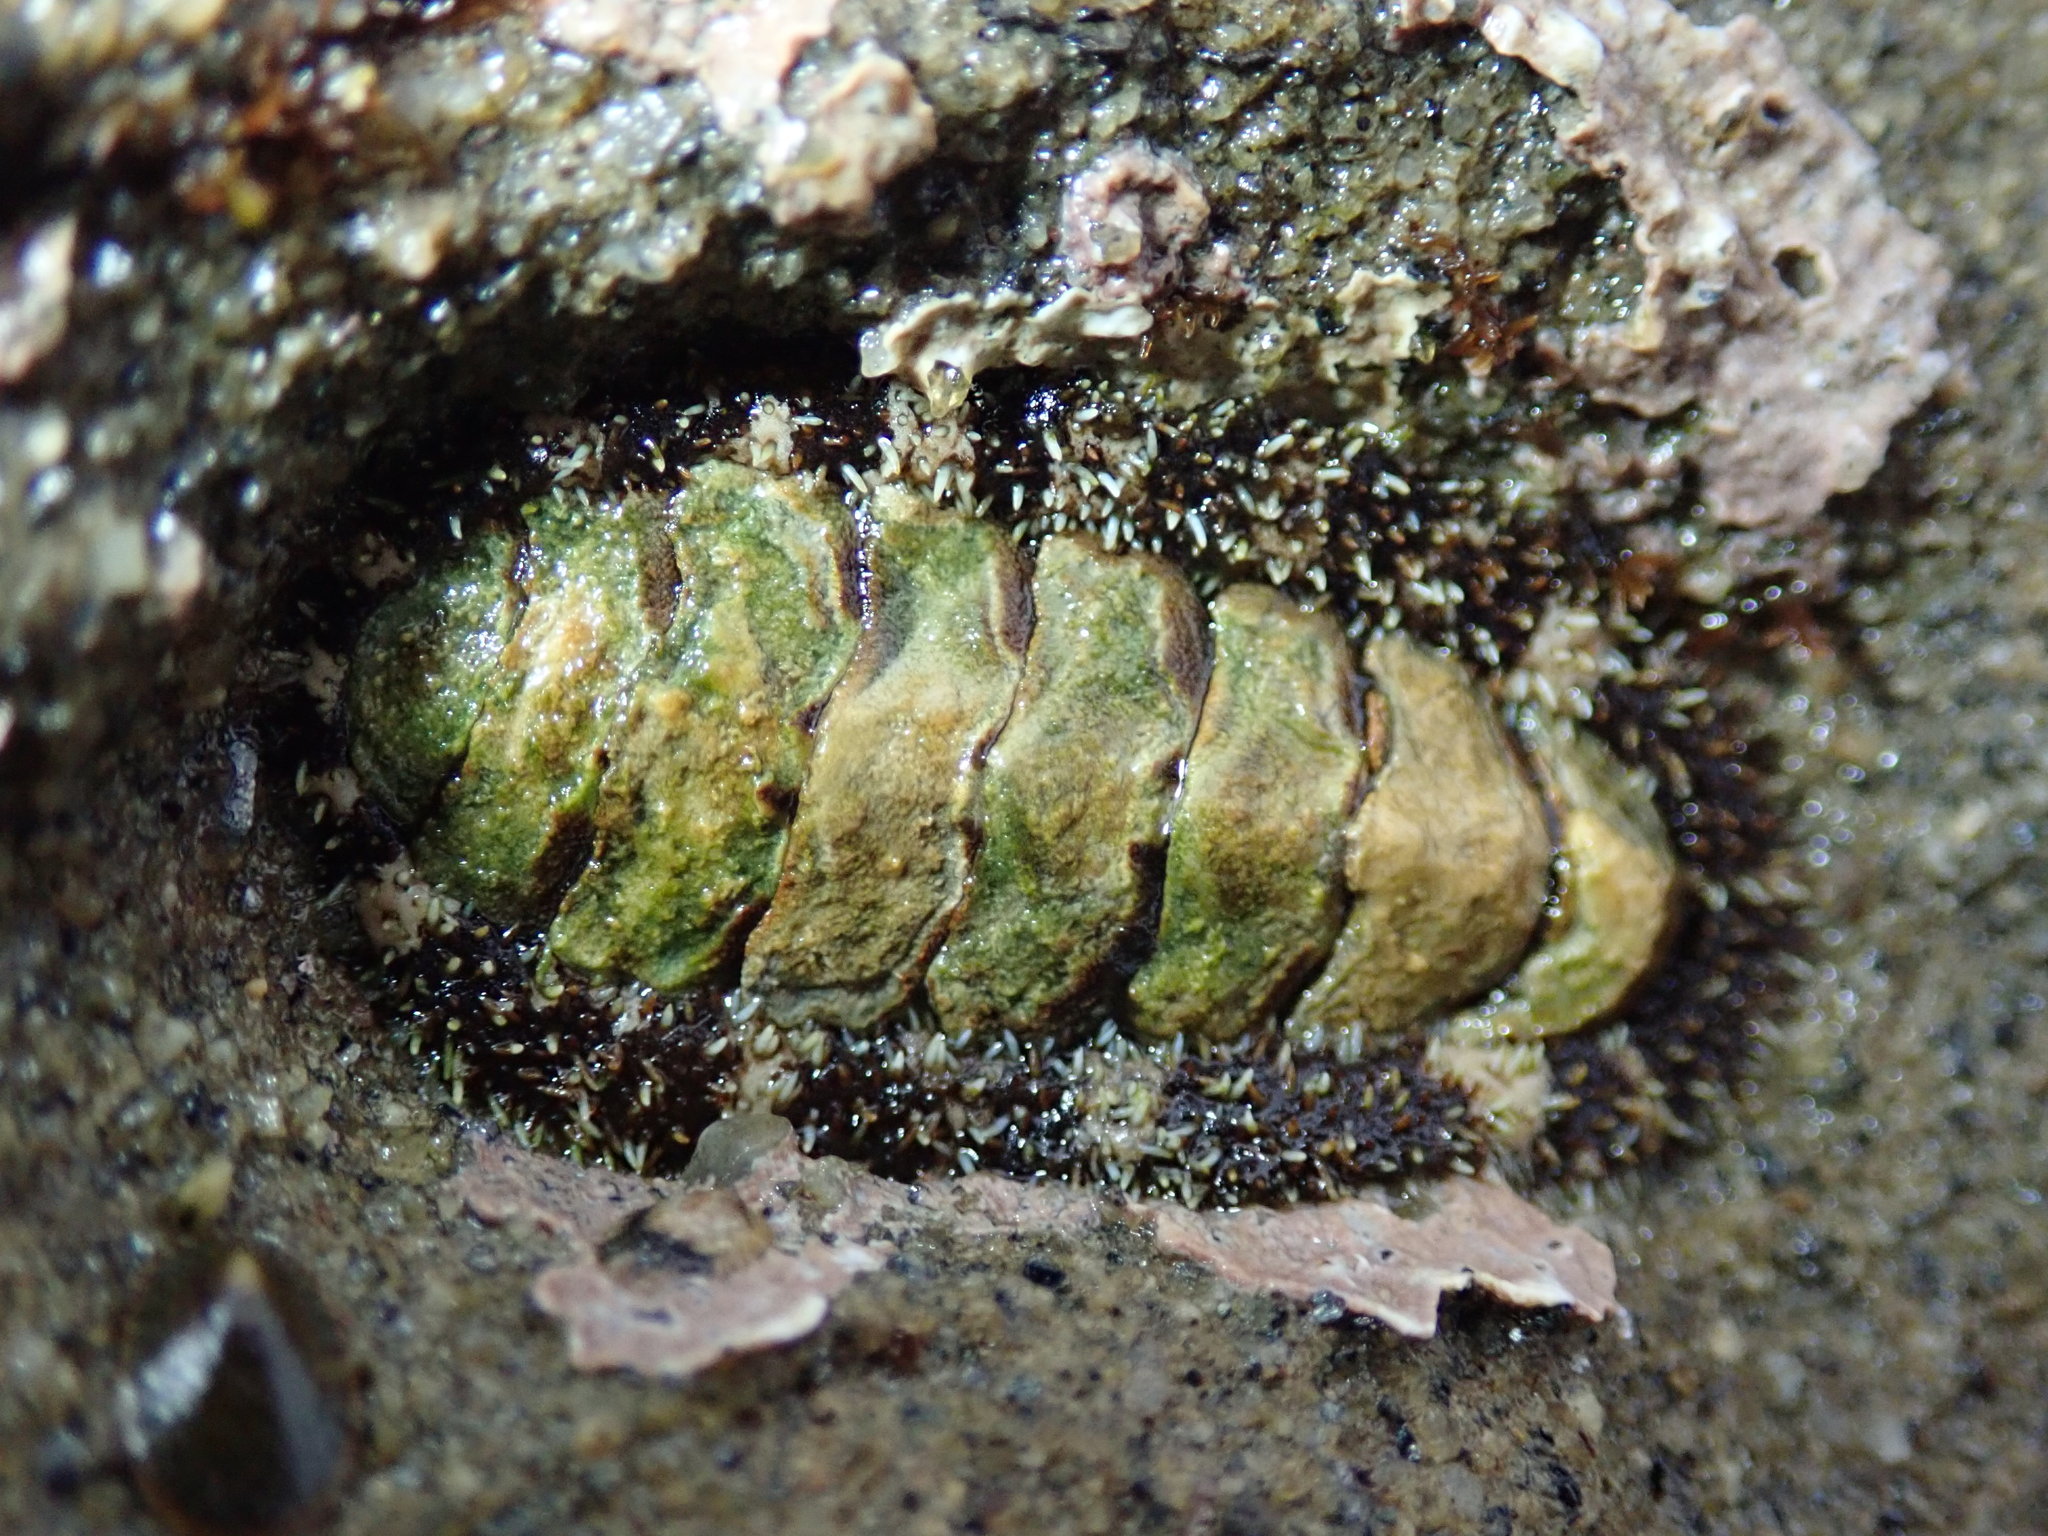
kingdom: Animalia
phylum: Mollusca
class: Polyplacophora
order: Chitonida
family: Tonicellidae
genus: Nuttallina
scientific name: Nuttallina californica
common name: California nuttall chiton
